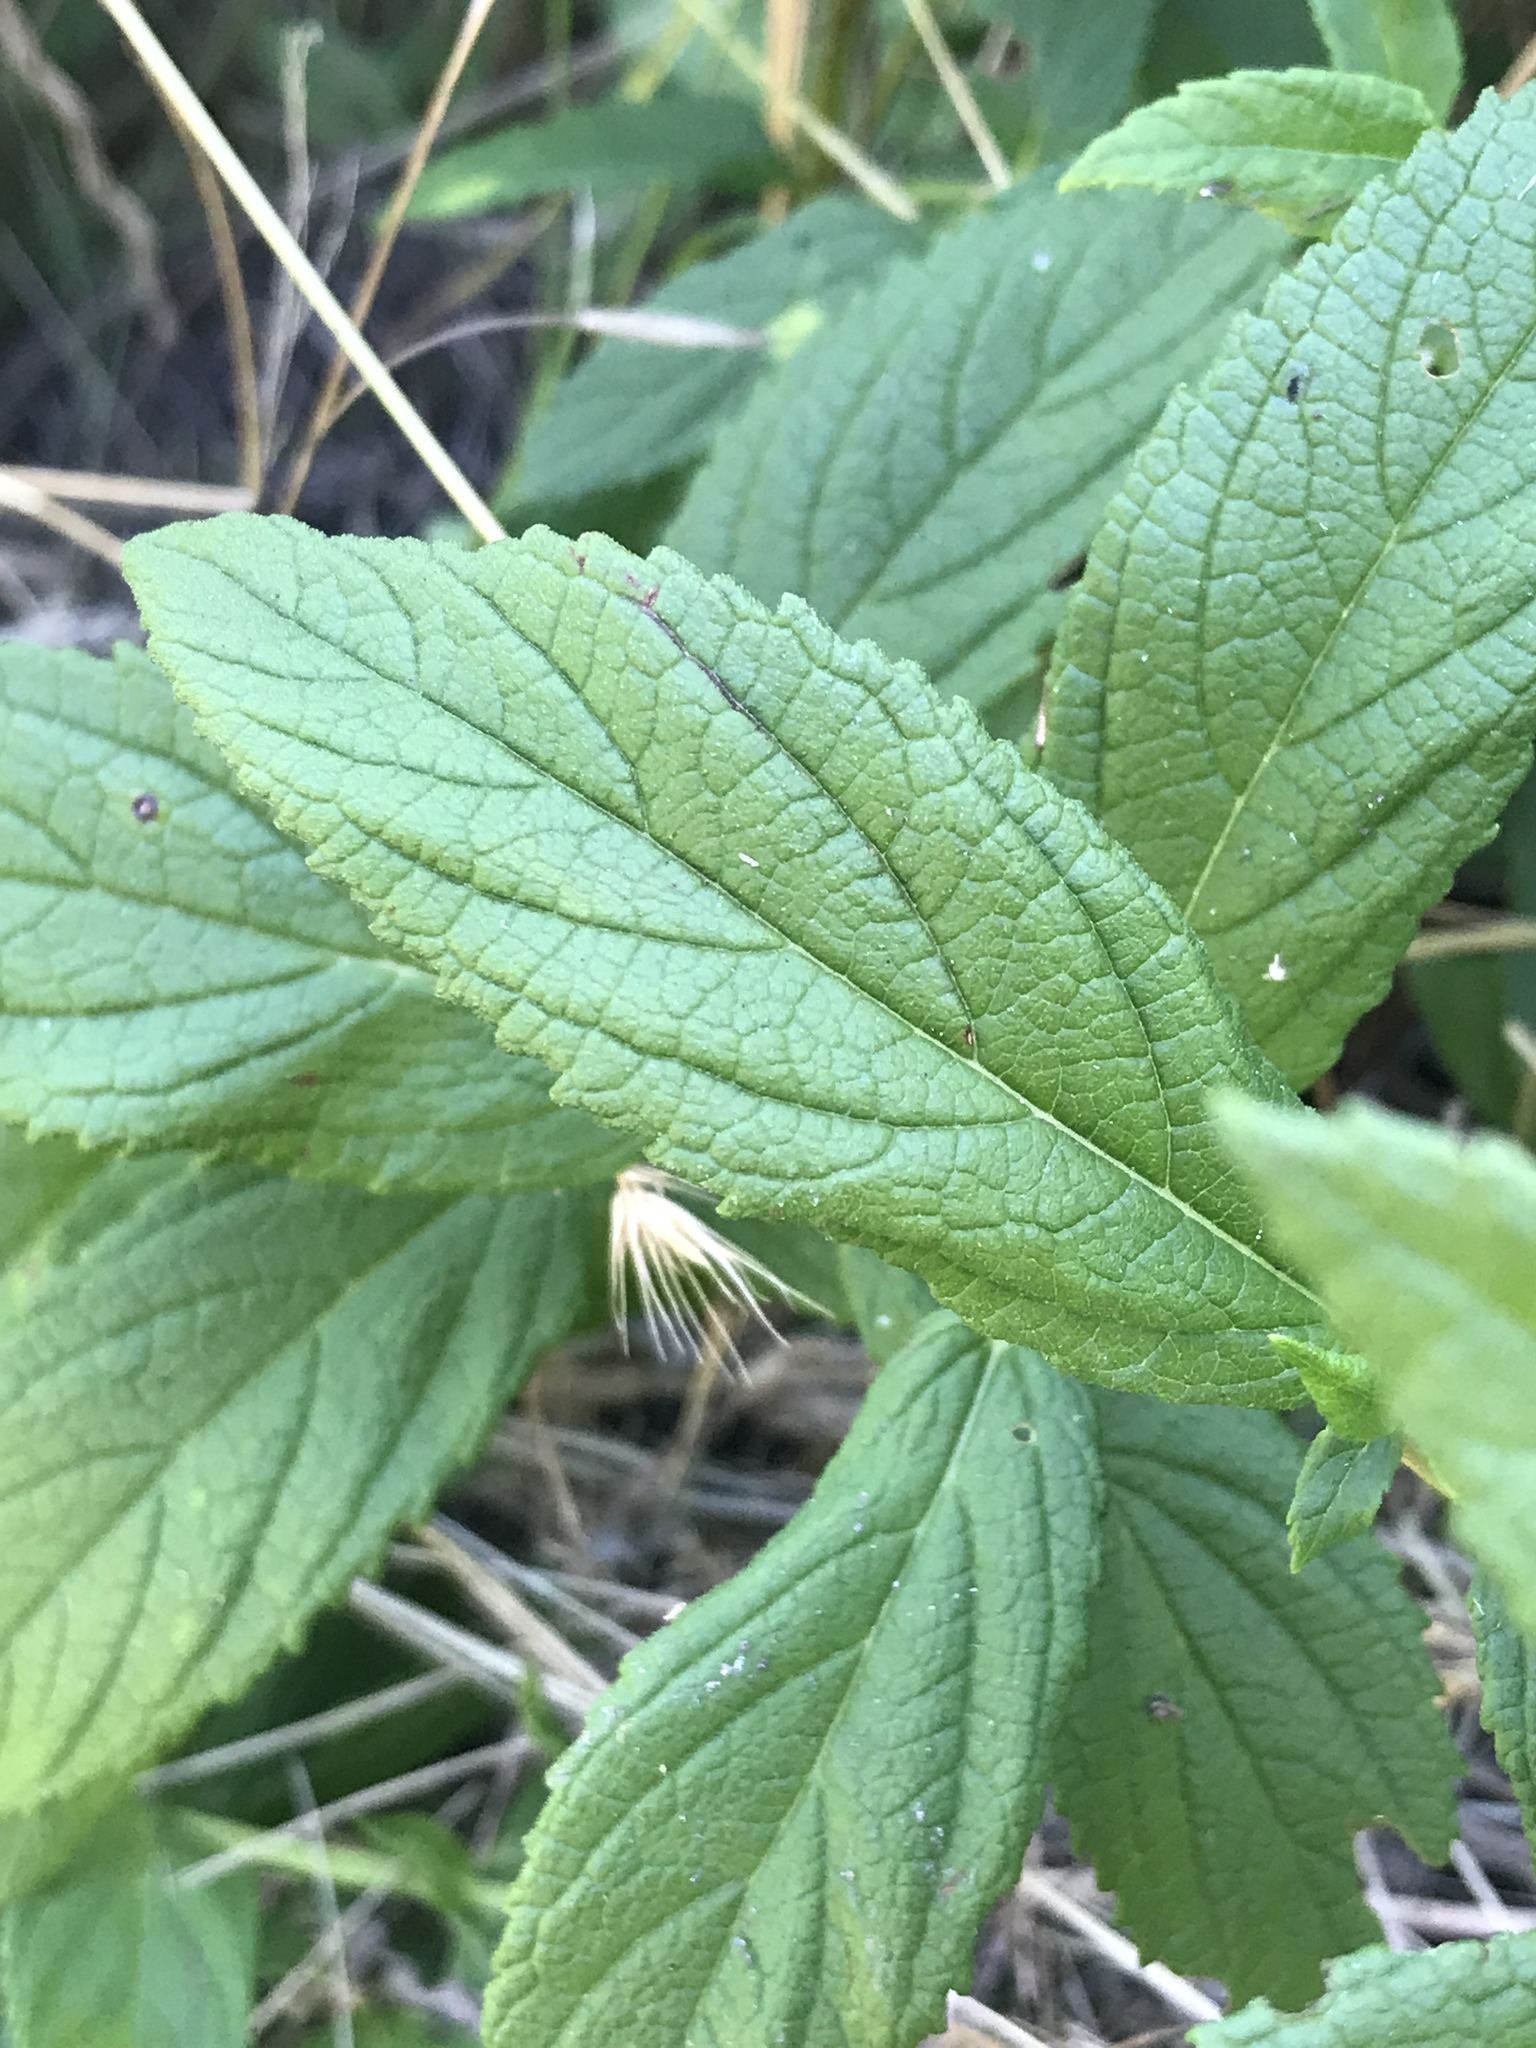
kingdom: Plantae
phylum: Tracheophyta
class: Magnoliopsida
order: Lamiales
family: Lamiaceae
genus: Teucrium
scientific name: Teucrium canadense
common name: American germander
